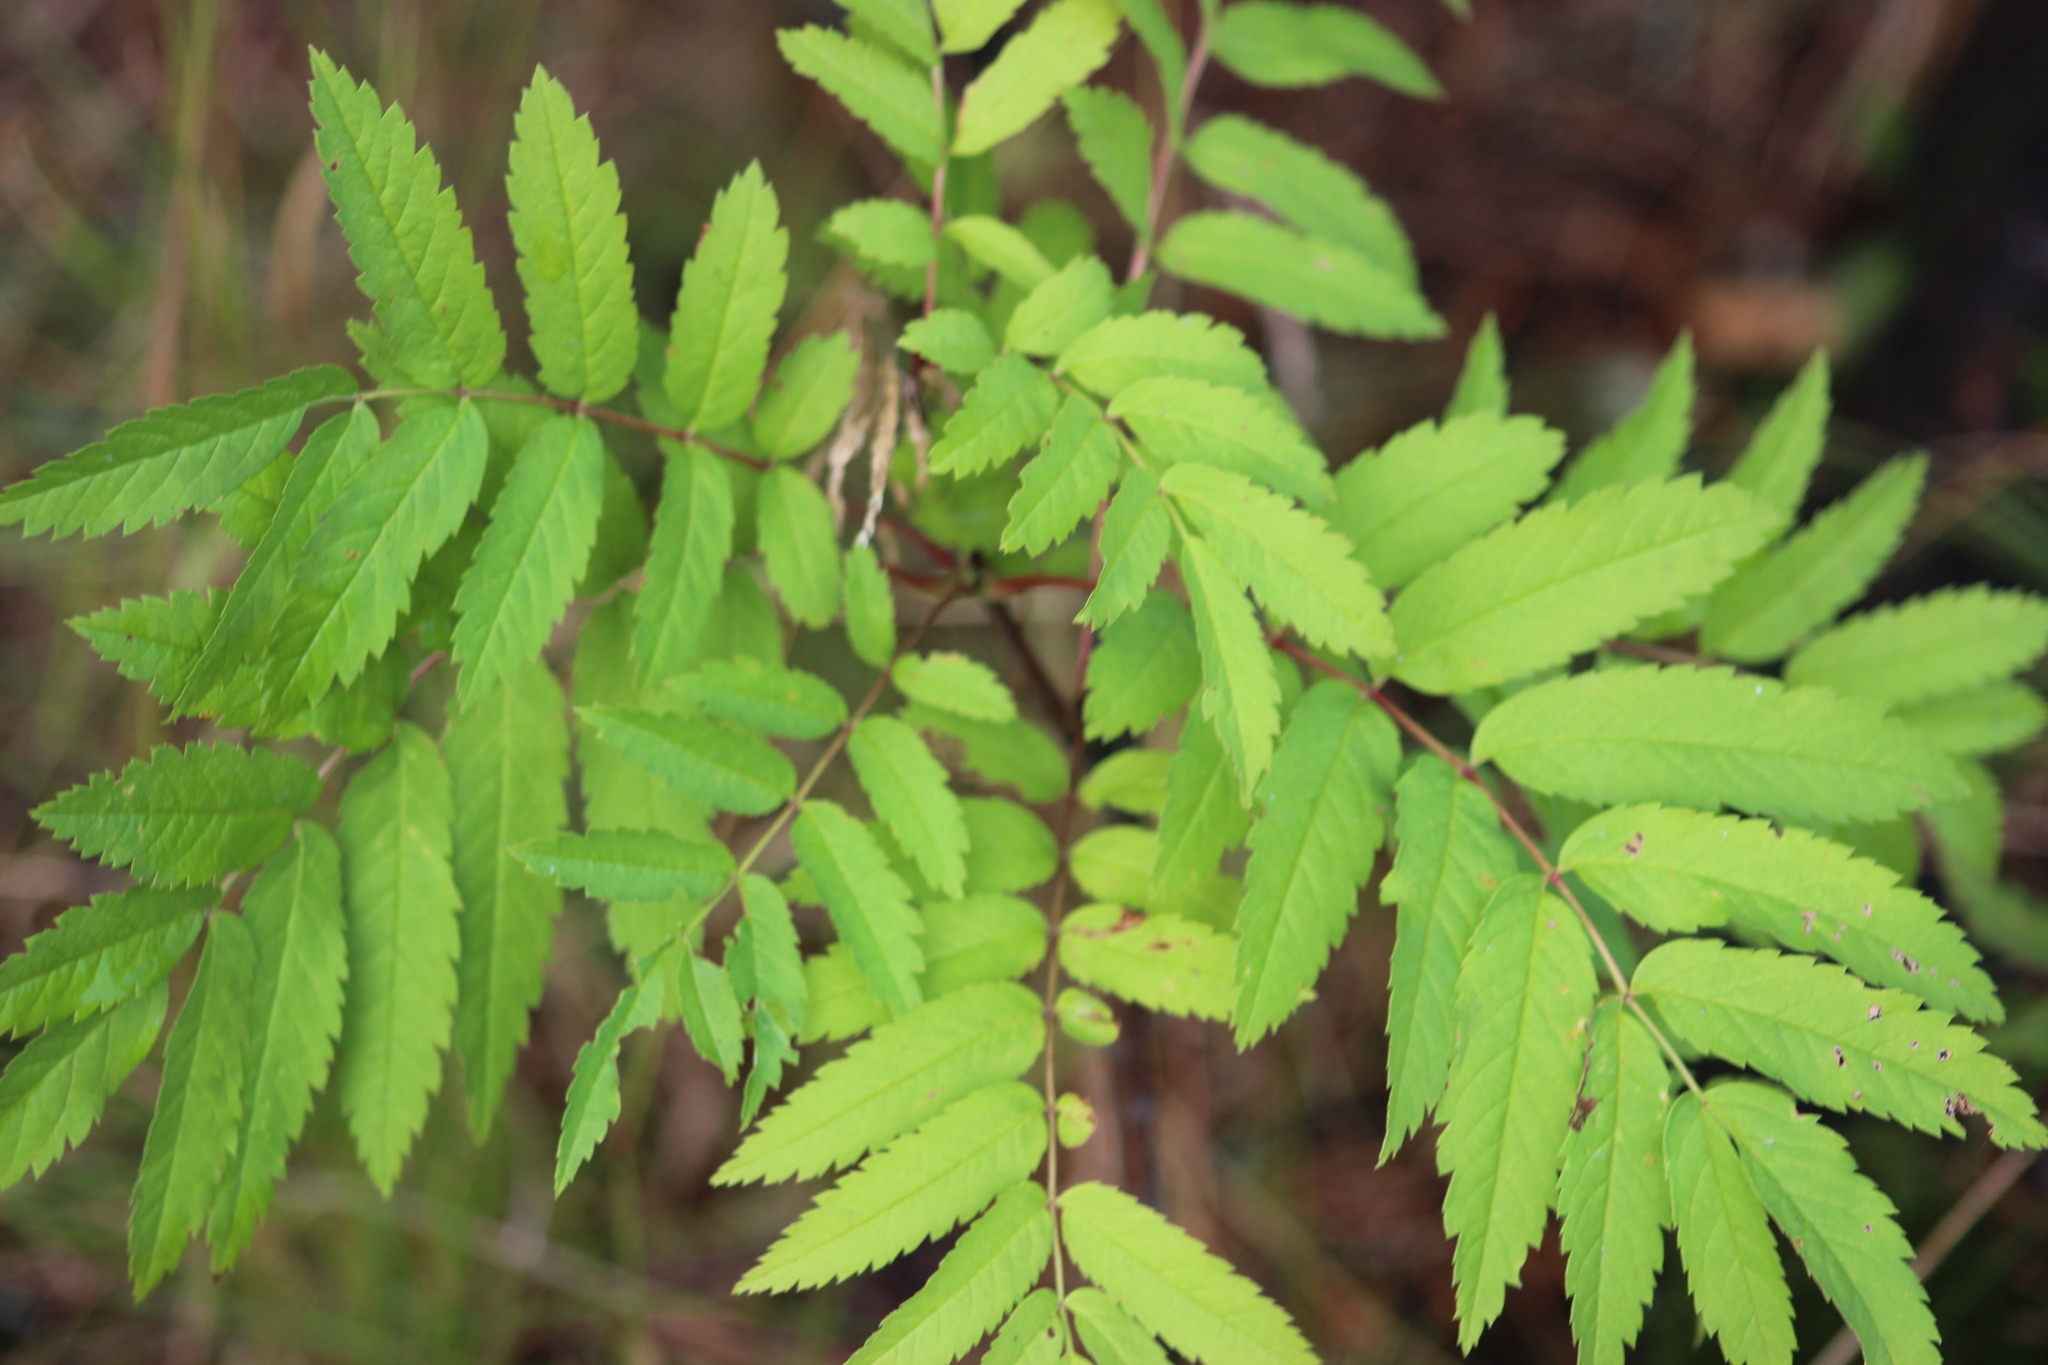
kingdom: Plantae
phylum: Tracheophyta
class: Magnoliopsida
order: Rosales
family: Rosaceae
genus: Sorbus
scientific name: Sorbus aucuparia
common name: Rowan
